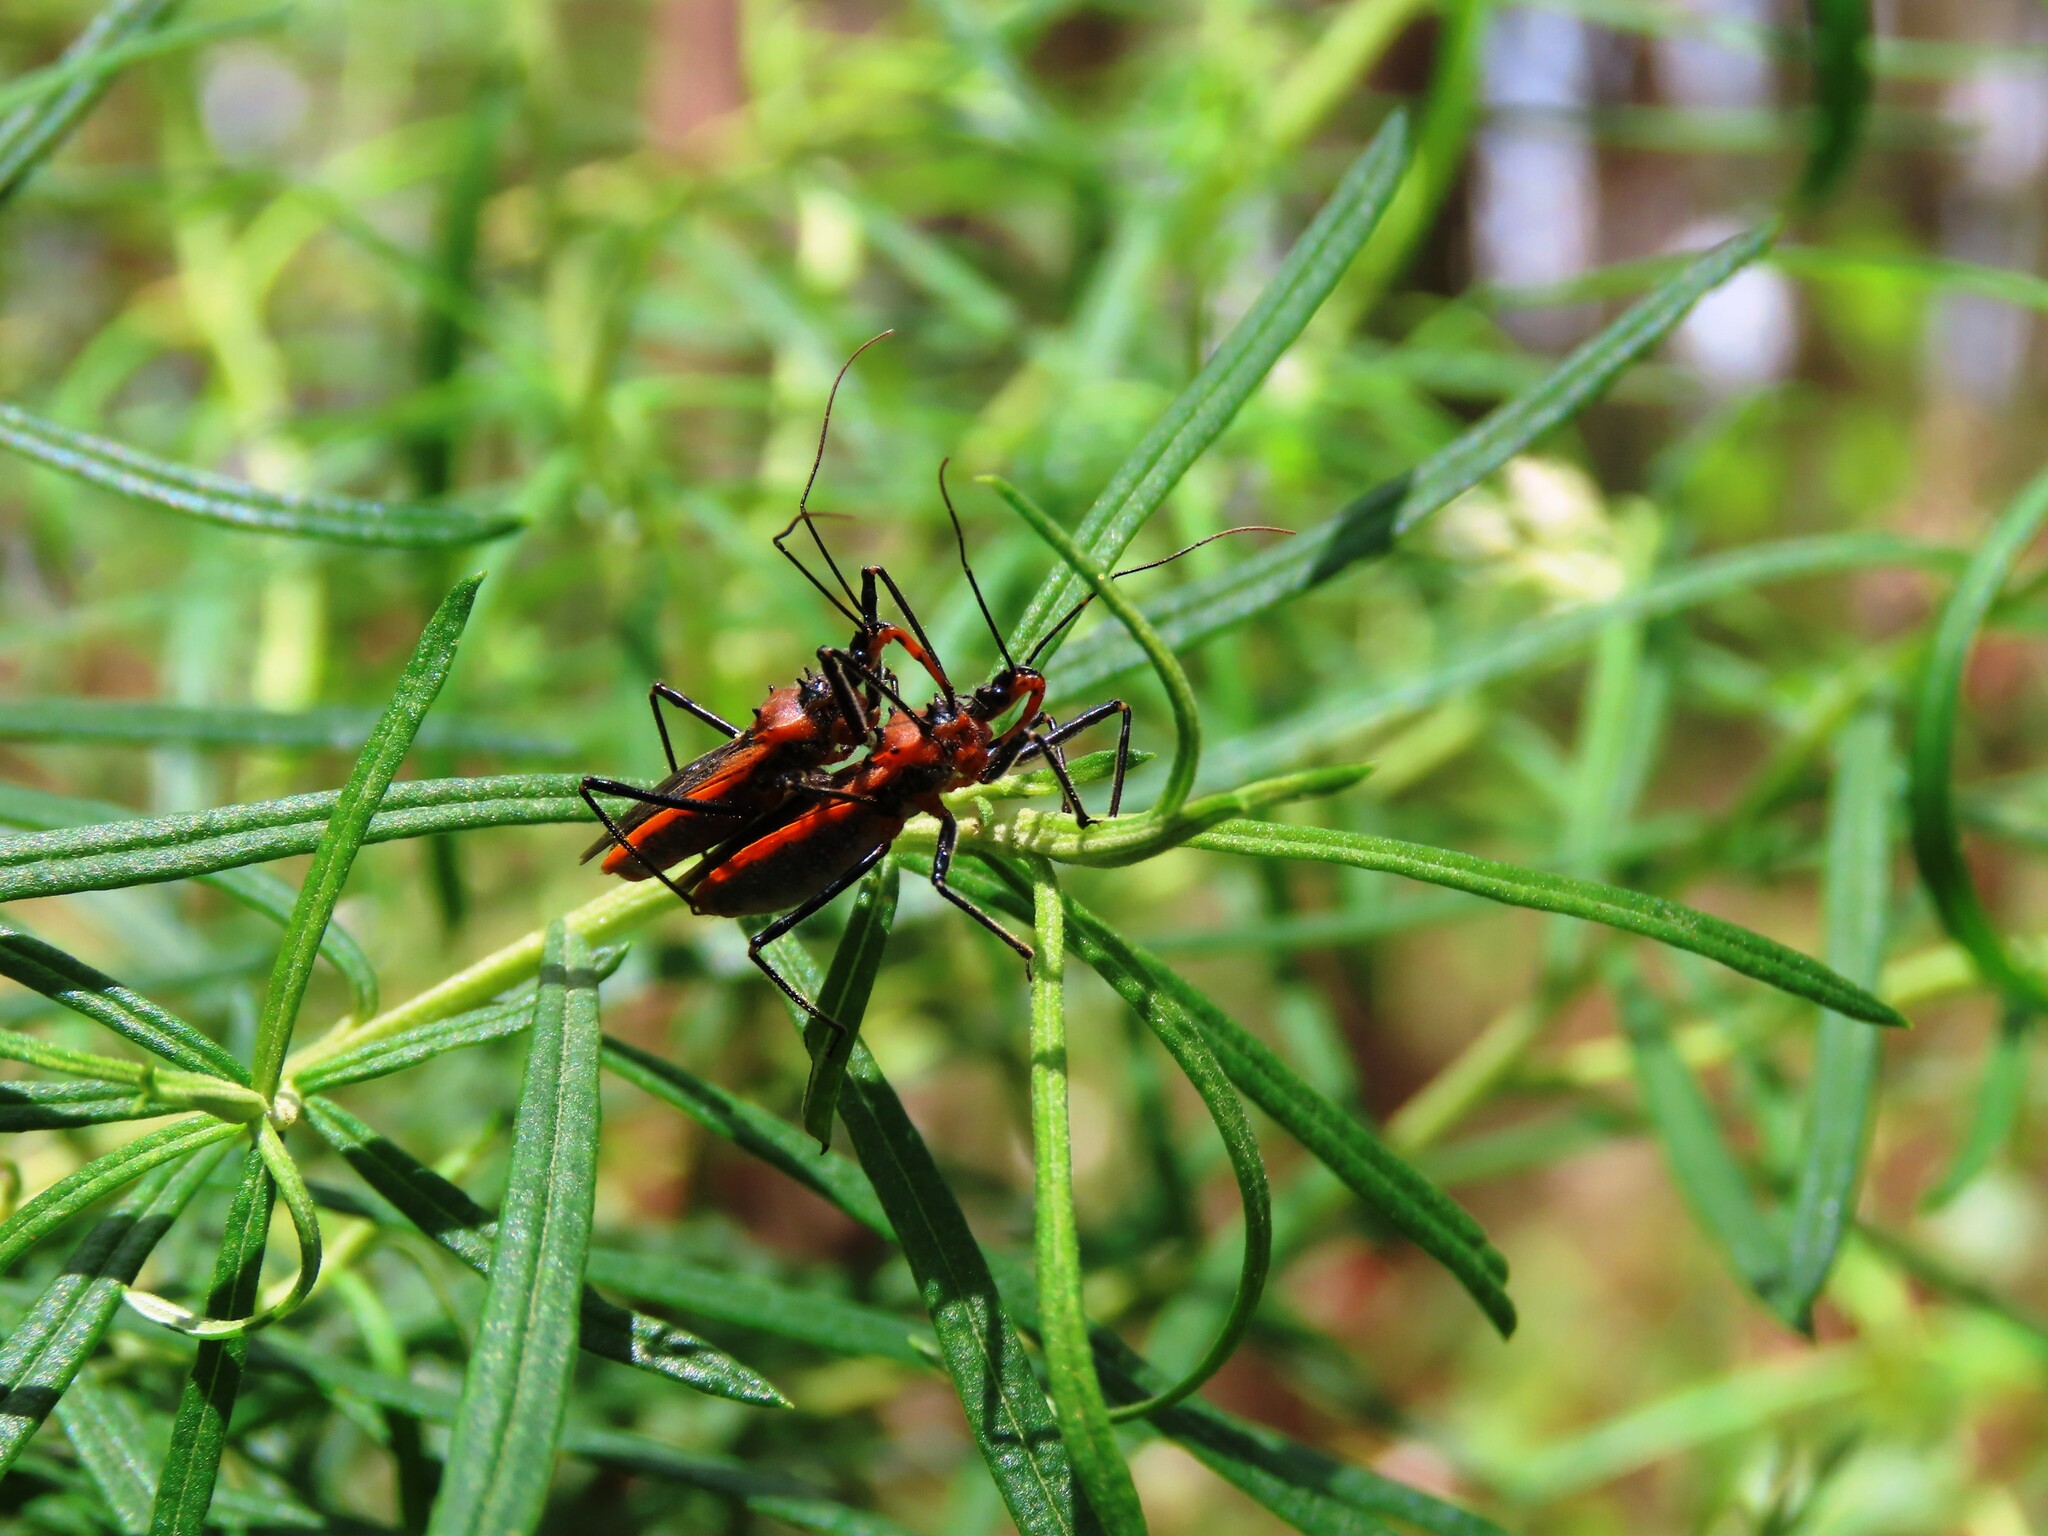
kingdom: Animalia
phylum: Arthropoda
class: Insecta
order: Hemiptera
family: Reduviidae
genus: Gminatus
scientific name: Gminatus australis
